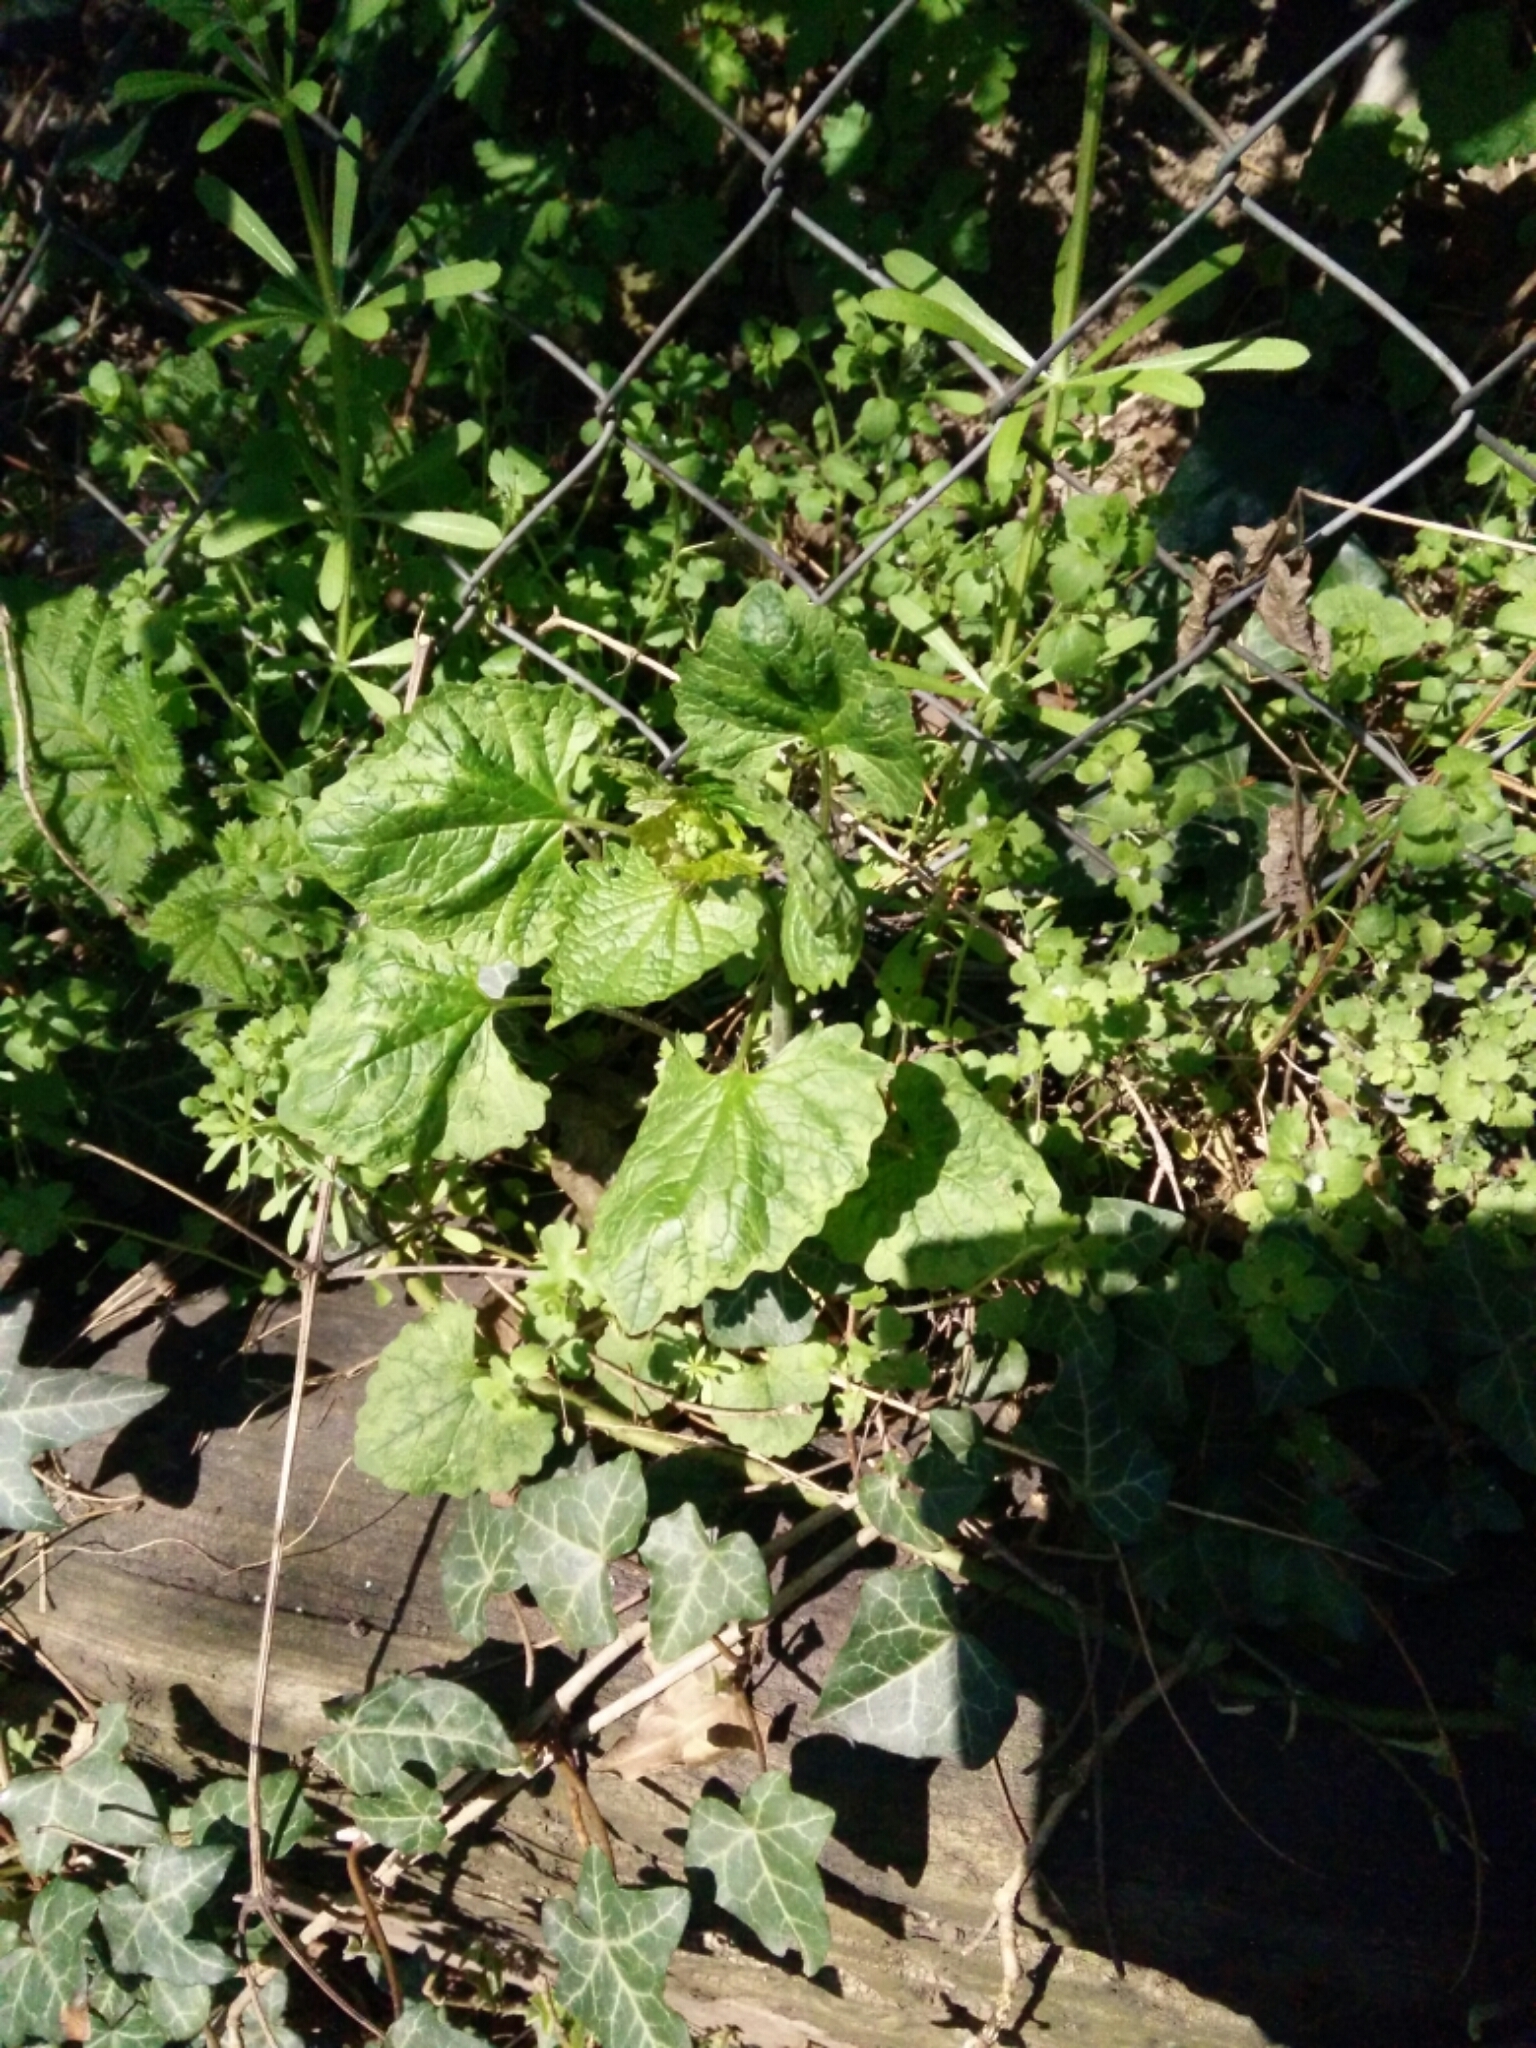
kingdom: Plantae
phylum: Tracheophyta
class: Magnoliopsida
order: Brassicales
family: Brassicaceae
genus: Alliaria
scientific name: Alliaria petiolata
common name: Garlic mustard
